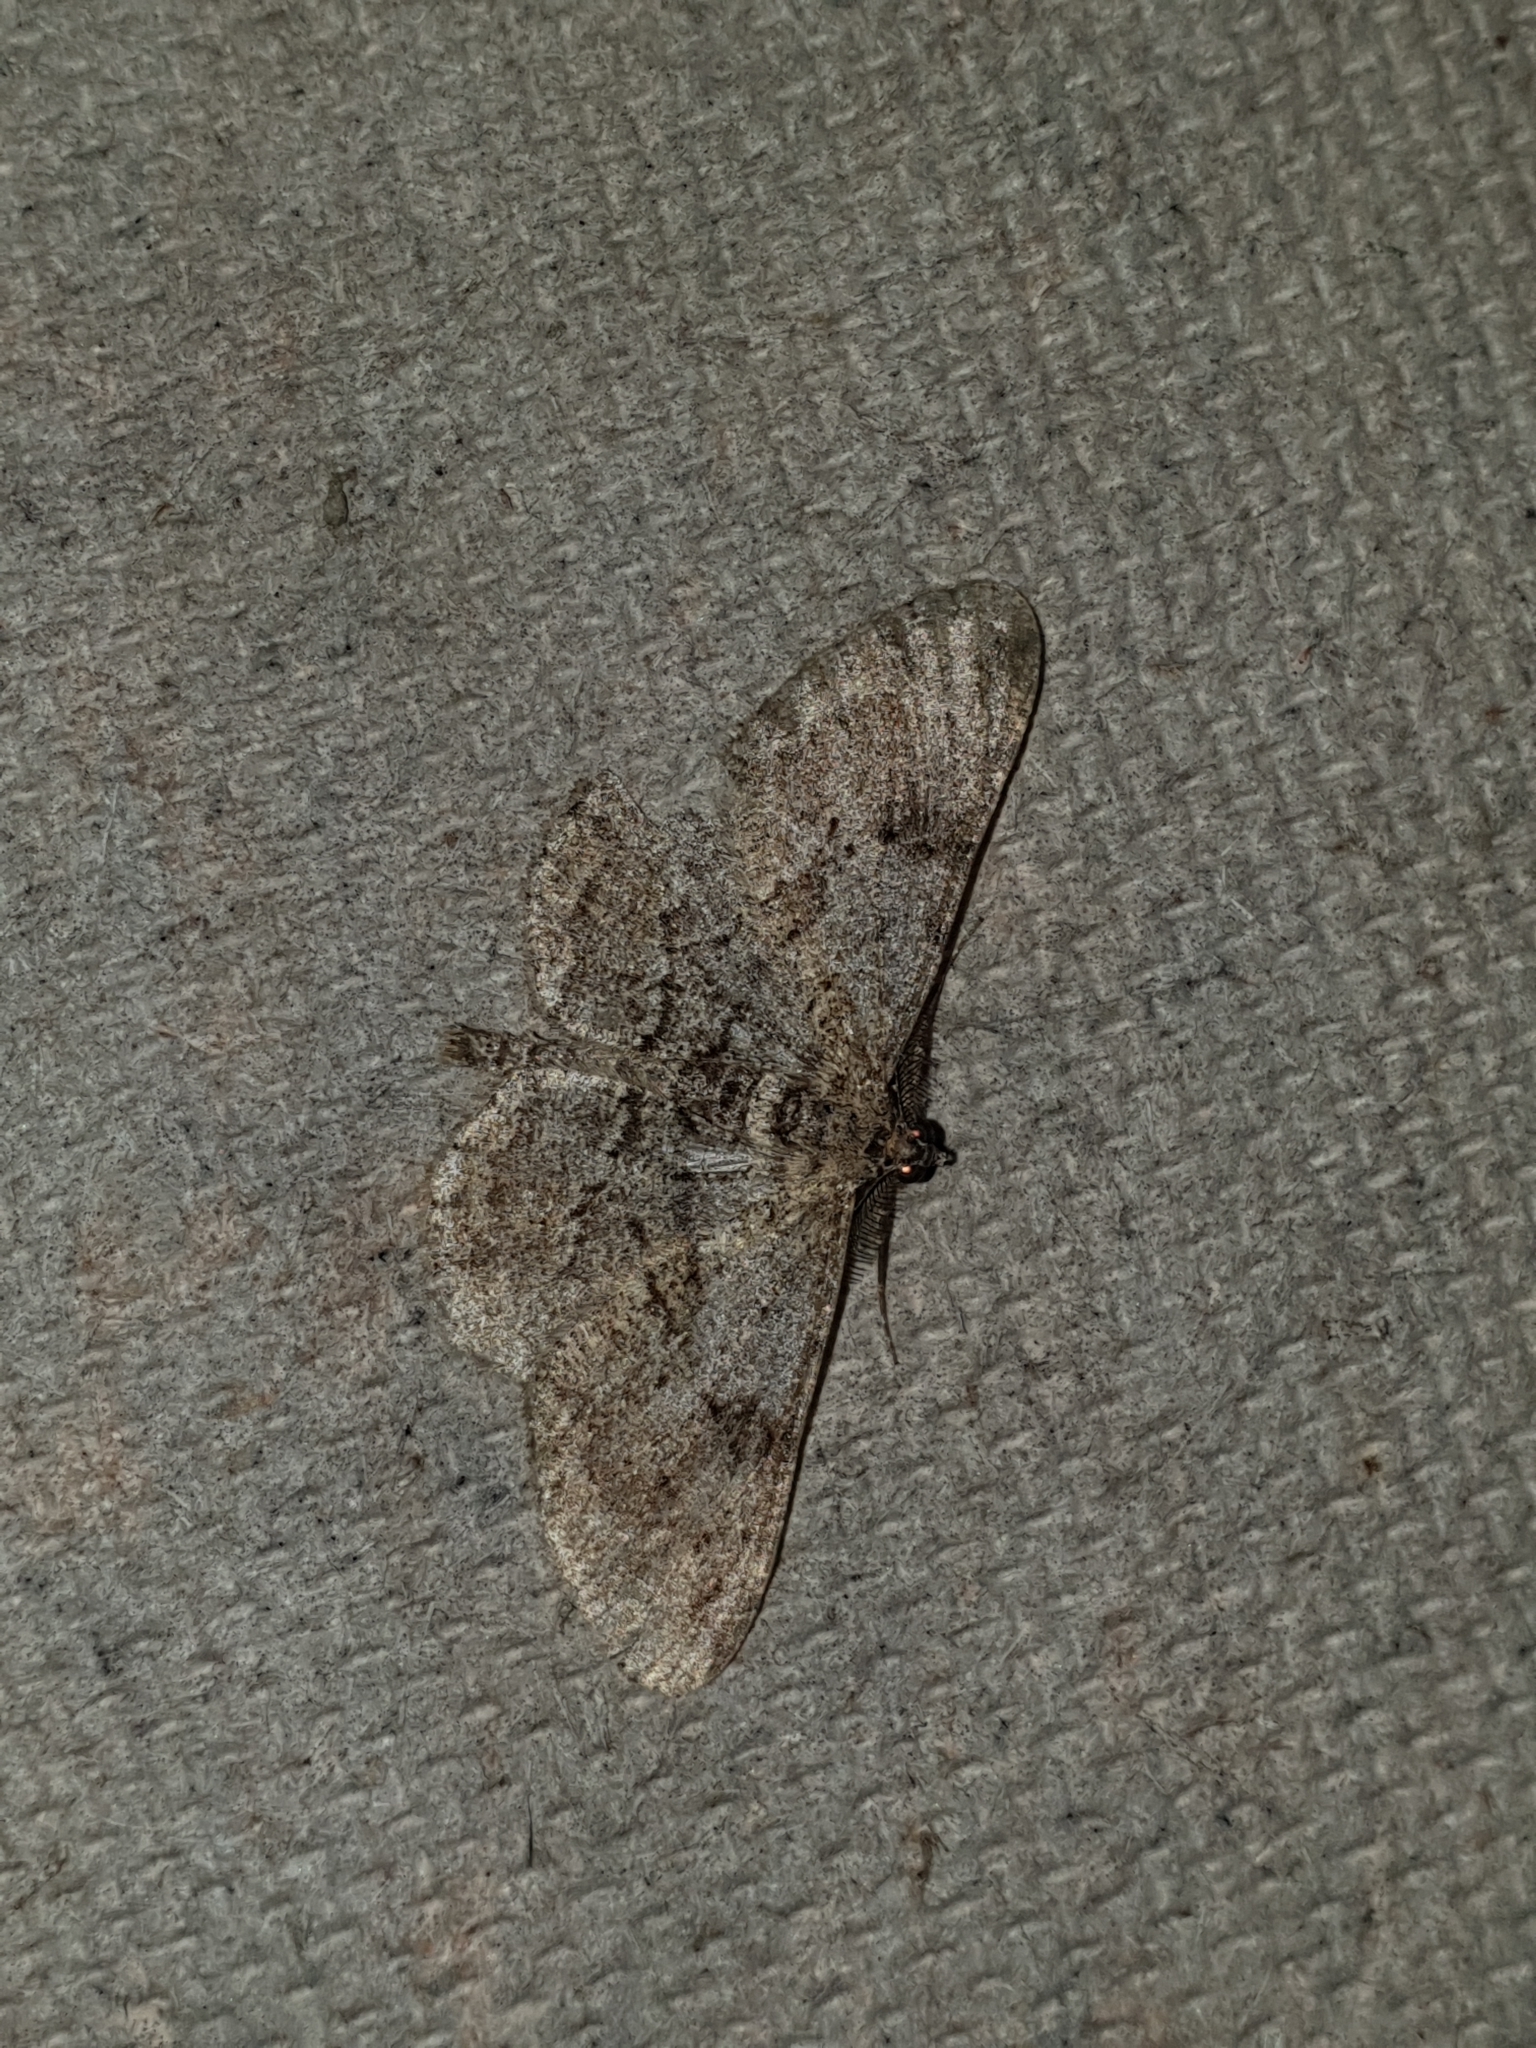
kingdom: Animalia
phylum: Arthropoda
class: Insecta
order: Lepidoptera
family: Geometridae
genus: Peribatodes
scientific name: Peribatodes rhomboidaria
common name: Willow beauty
